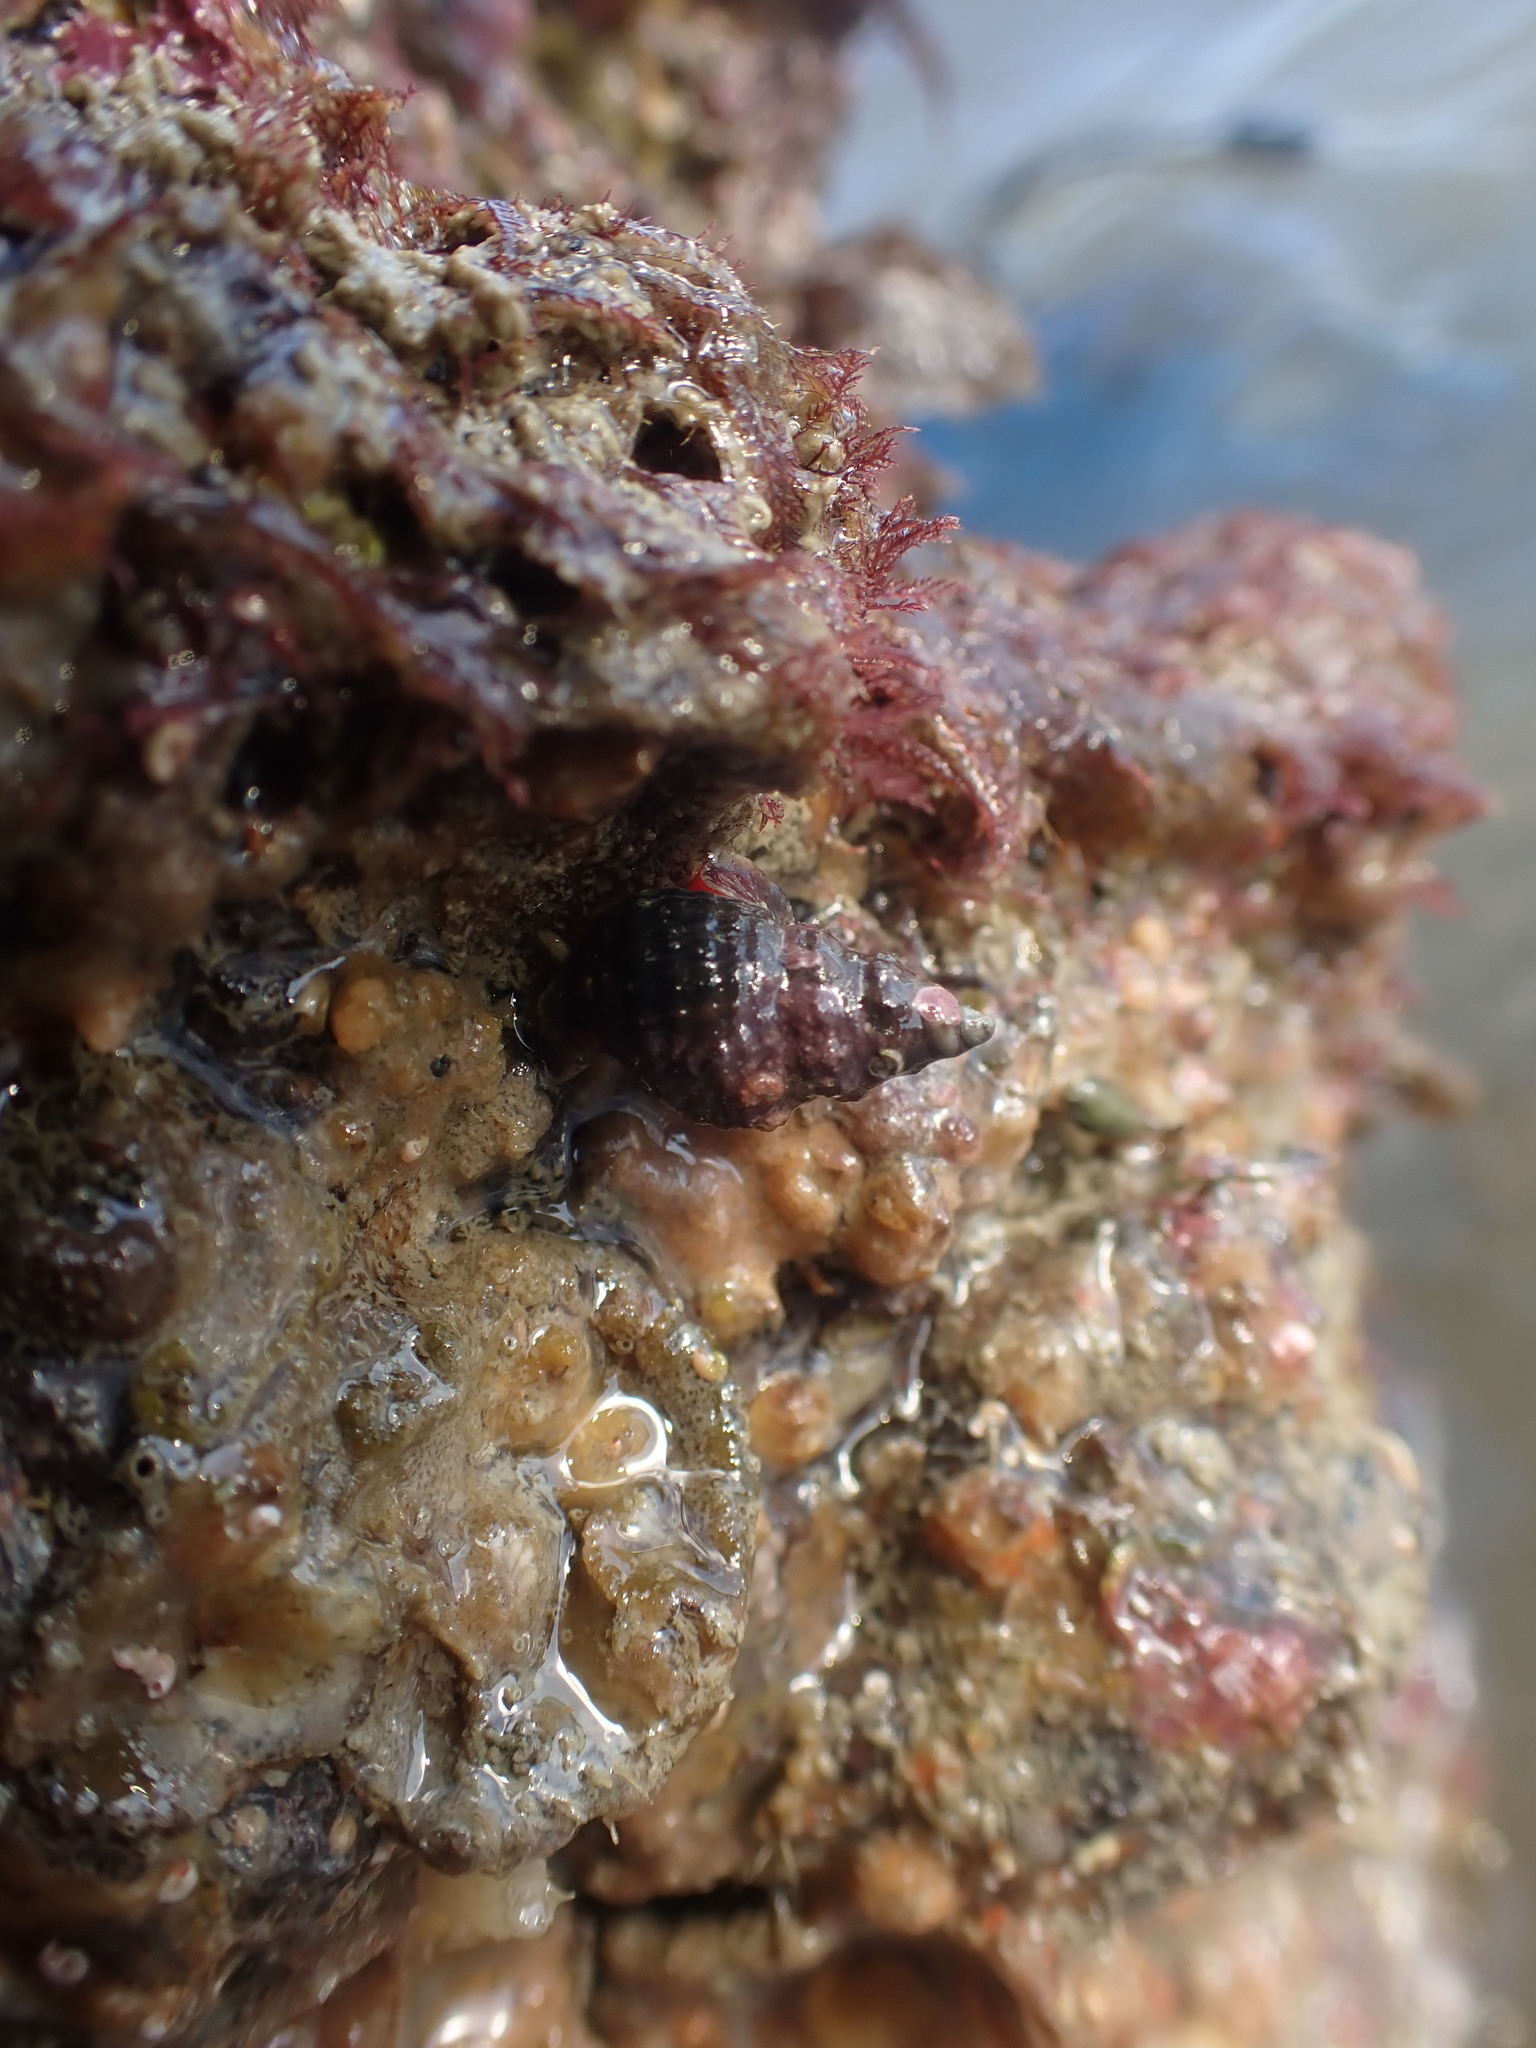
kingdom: Animalia
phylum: Mollusca
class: Gastropoda
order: Neogastropoda
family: Fasciolariidae
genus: Taron
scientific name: Taron dubius
